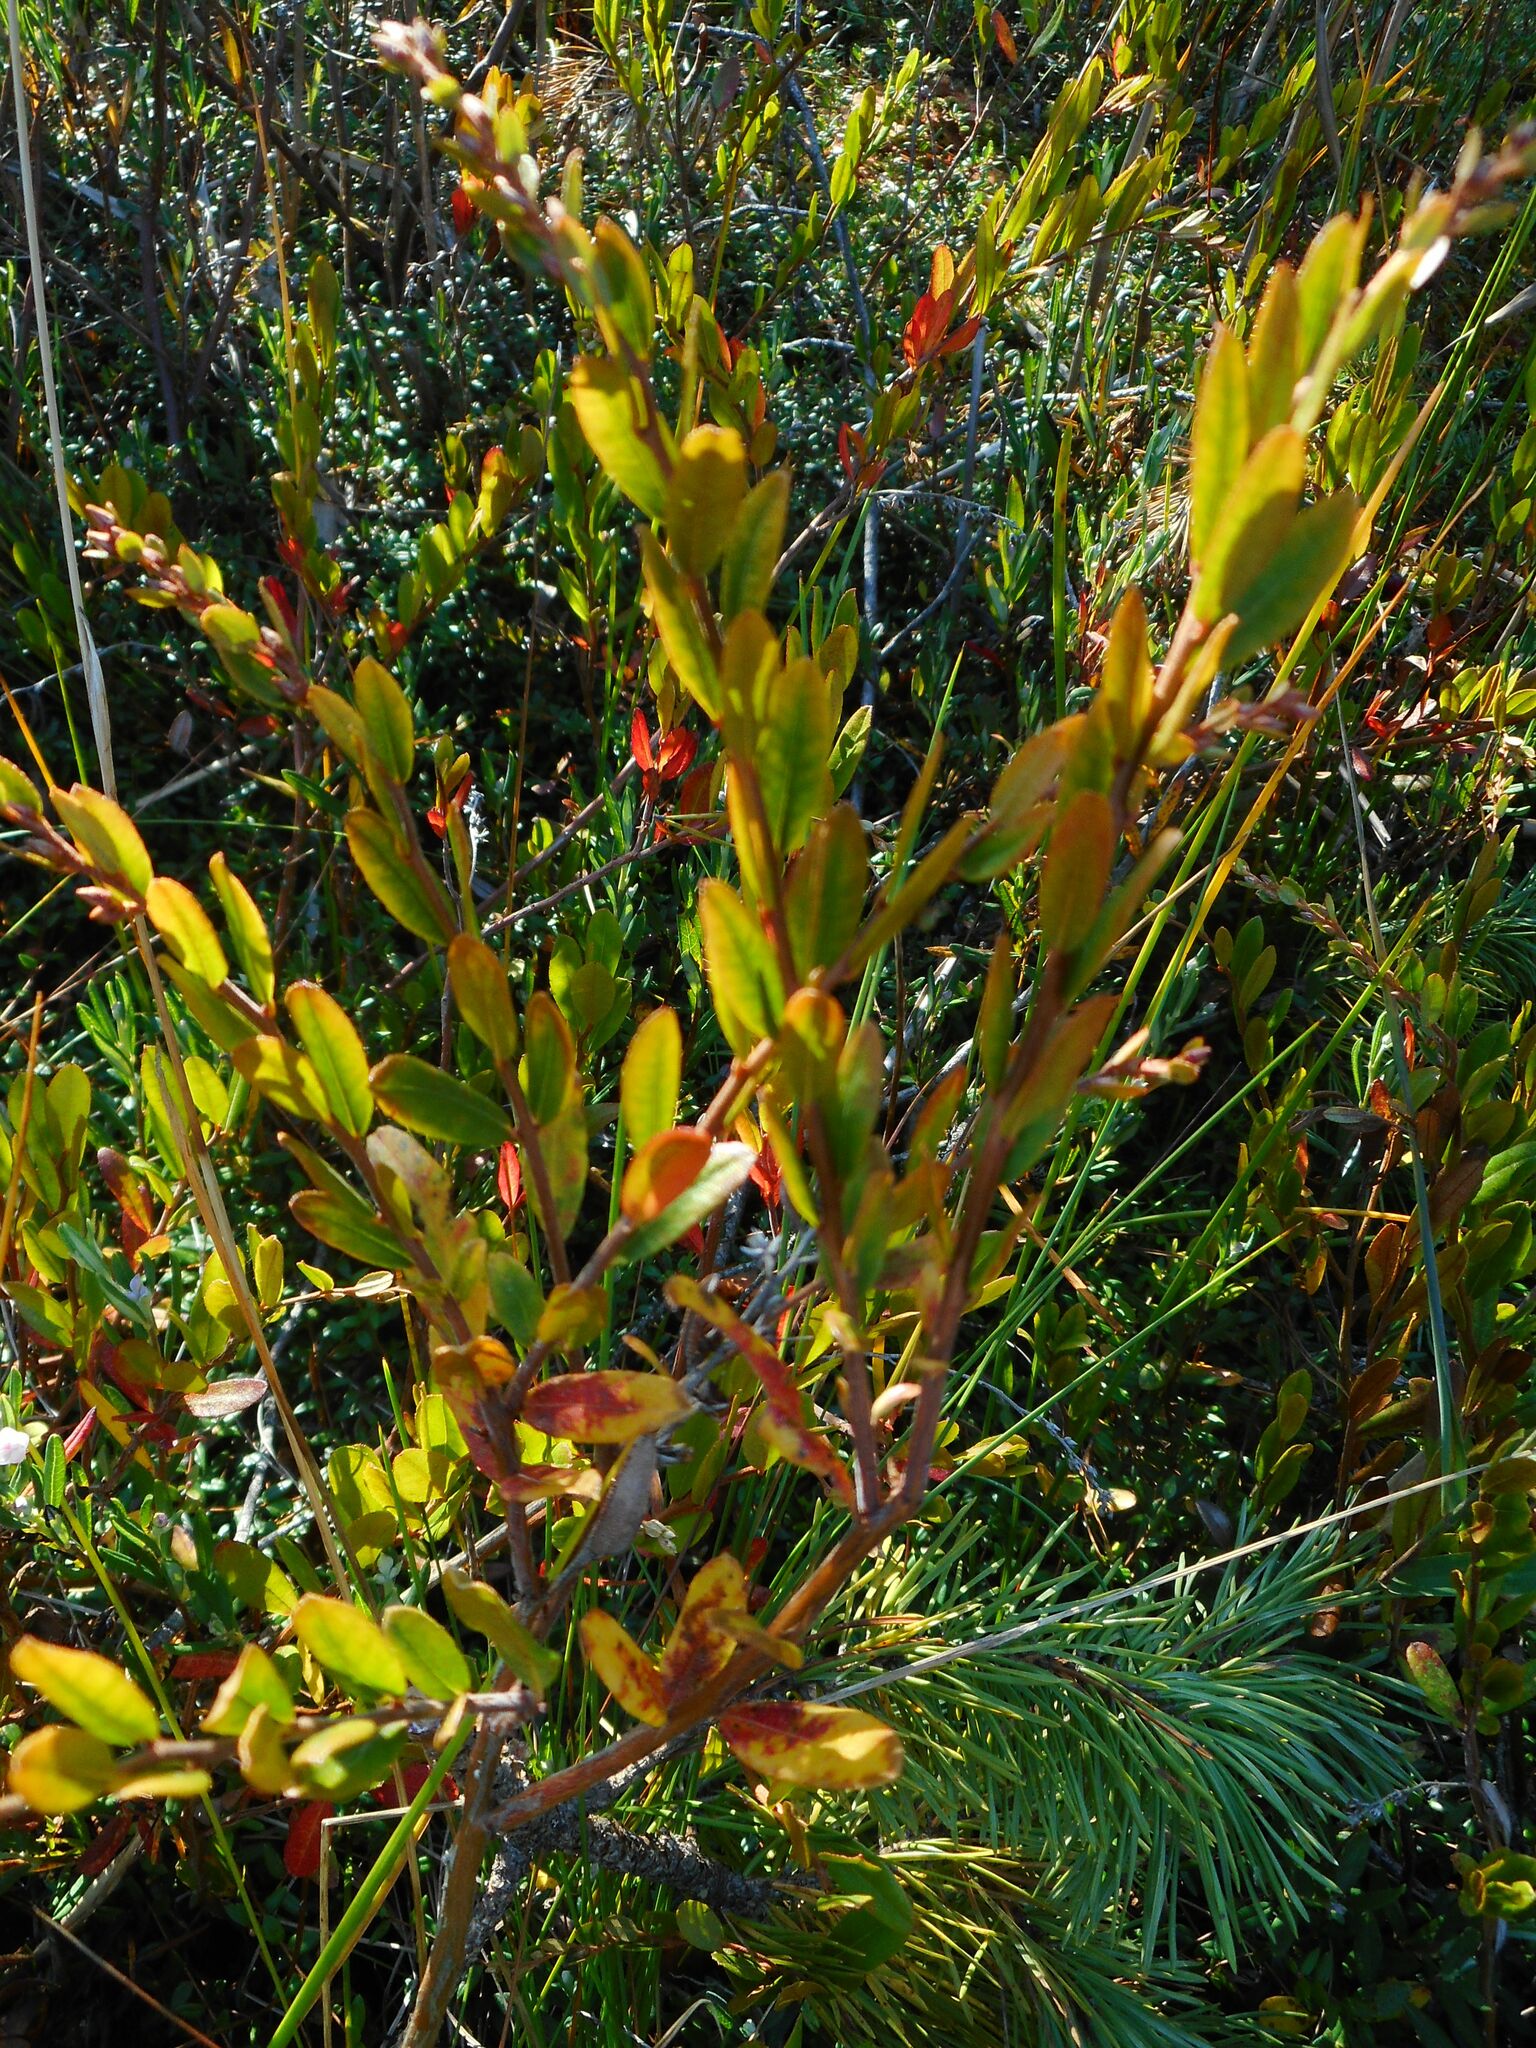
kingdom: Plantae
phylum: Tracheophyta
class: Magnoliopsida
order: Ericales
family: Ericaceae
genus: Chamaedaphne
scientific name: Chamaedaphne calyculata
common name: Leatherleaf
